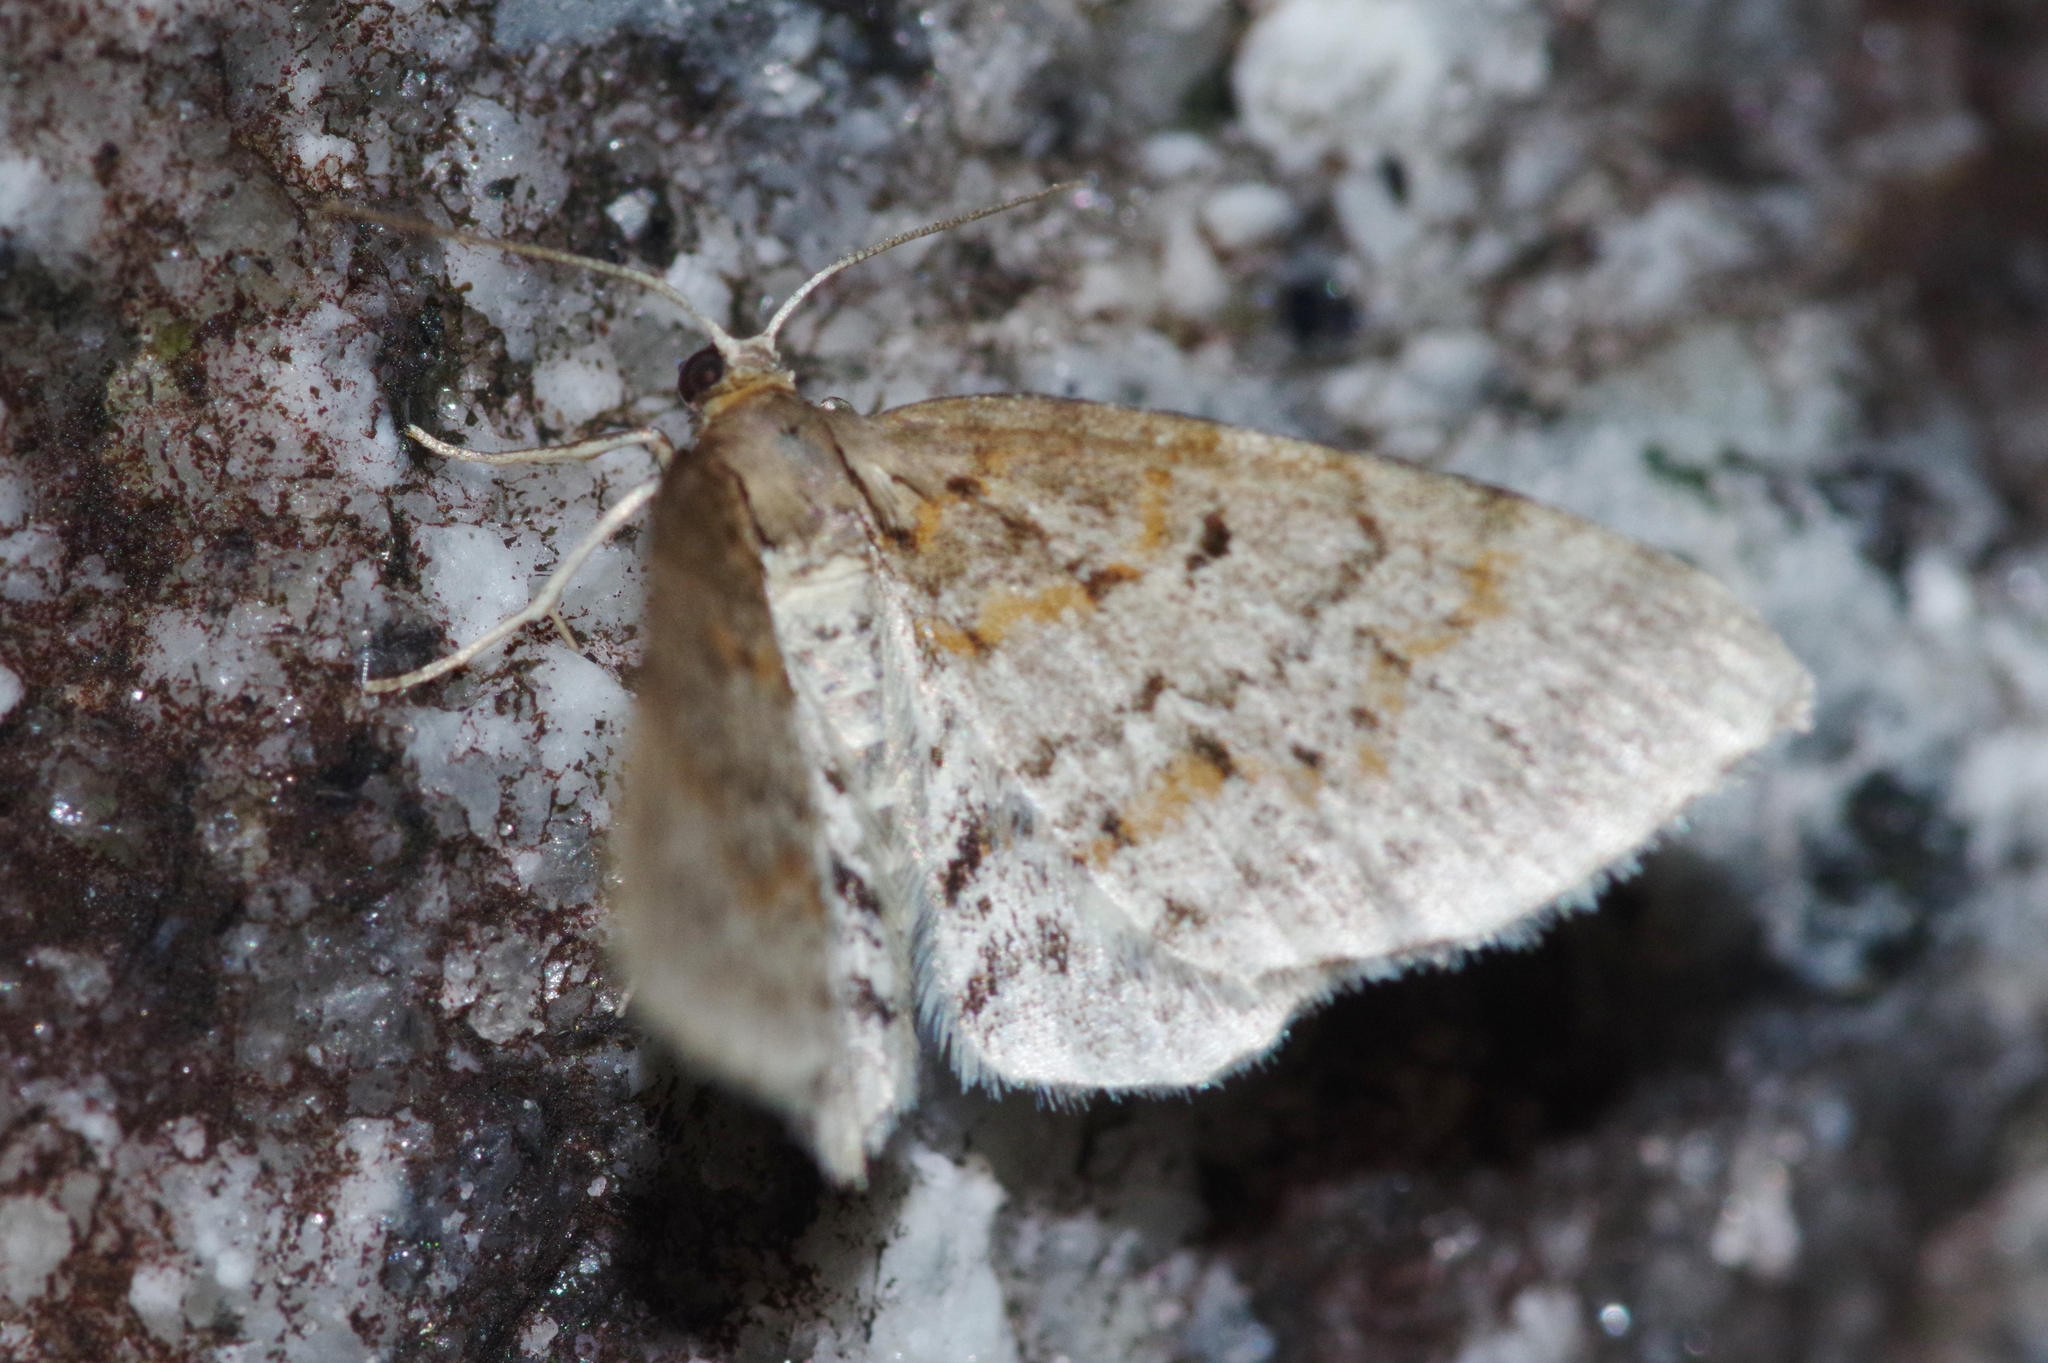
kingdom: Animalia
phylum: Arthropoda
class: Insecta
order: Lepidoptera
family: Geometridae
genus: Hydrelia
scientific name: Hydrelia nisaria
